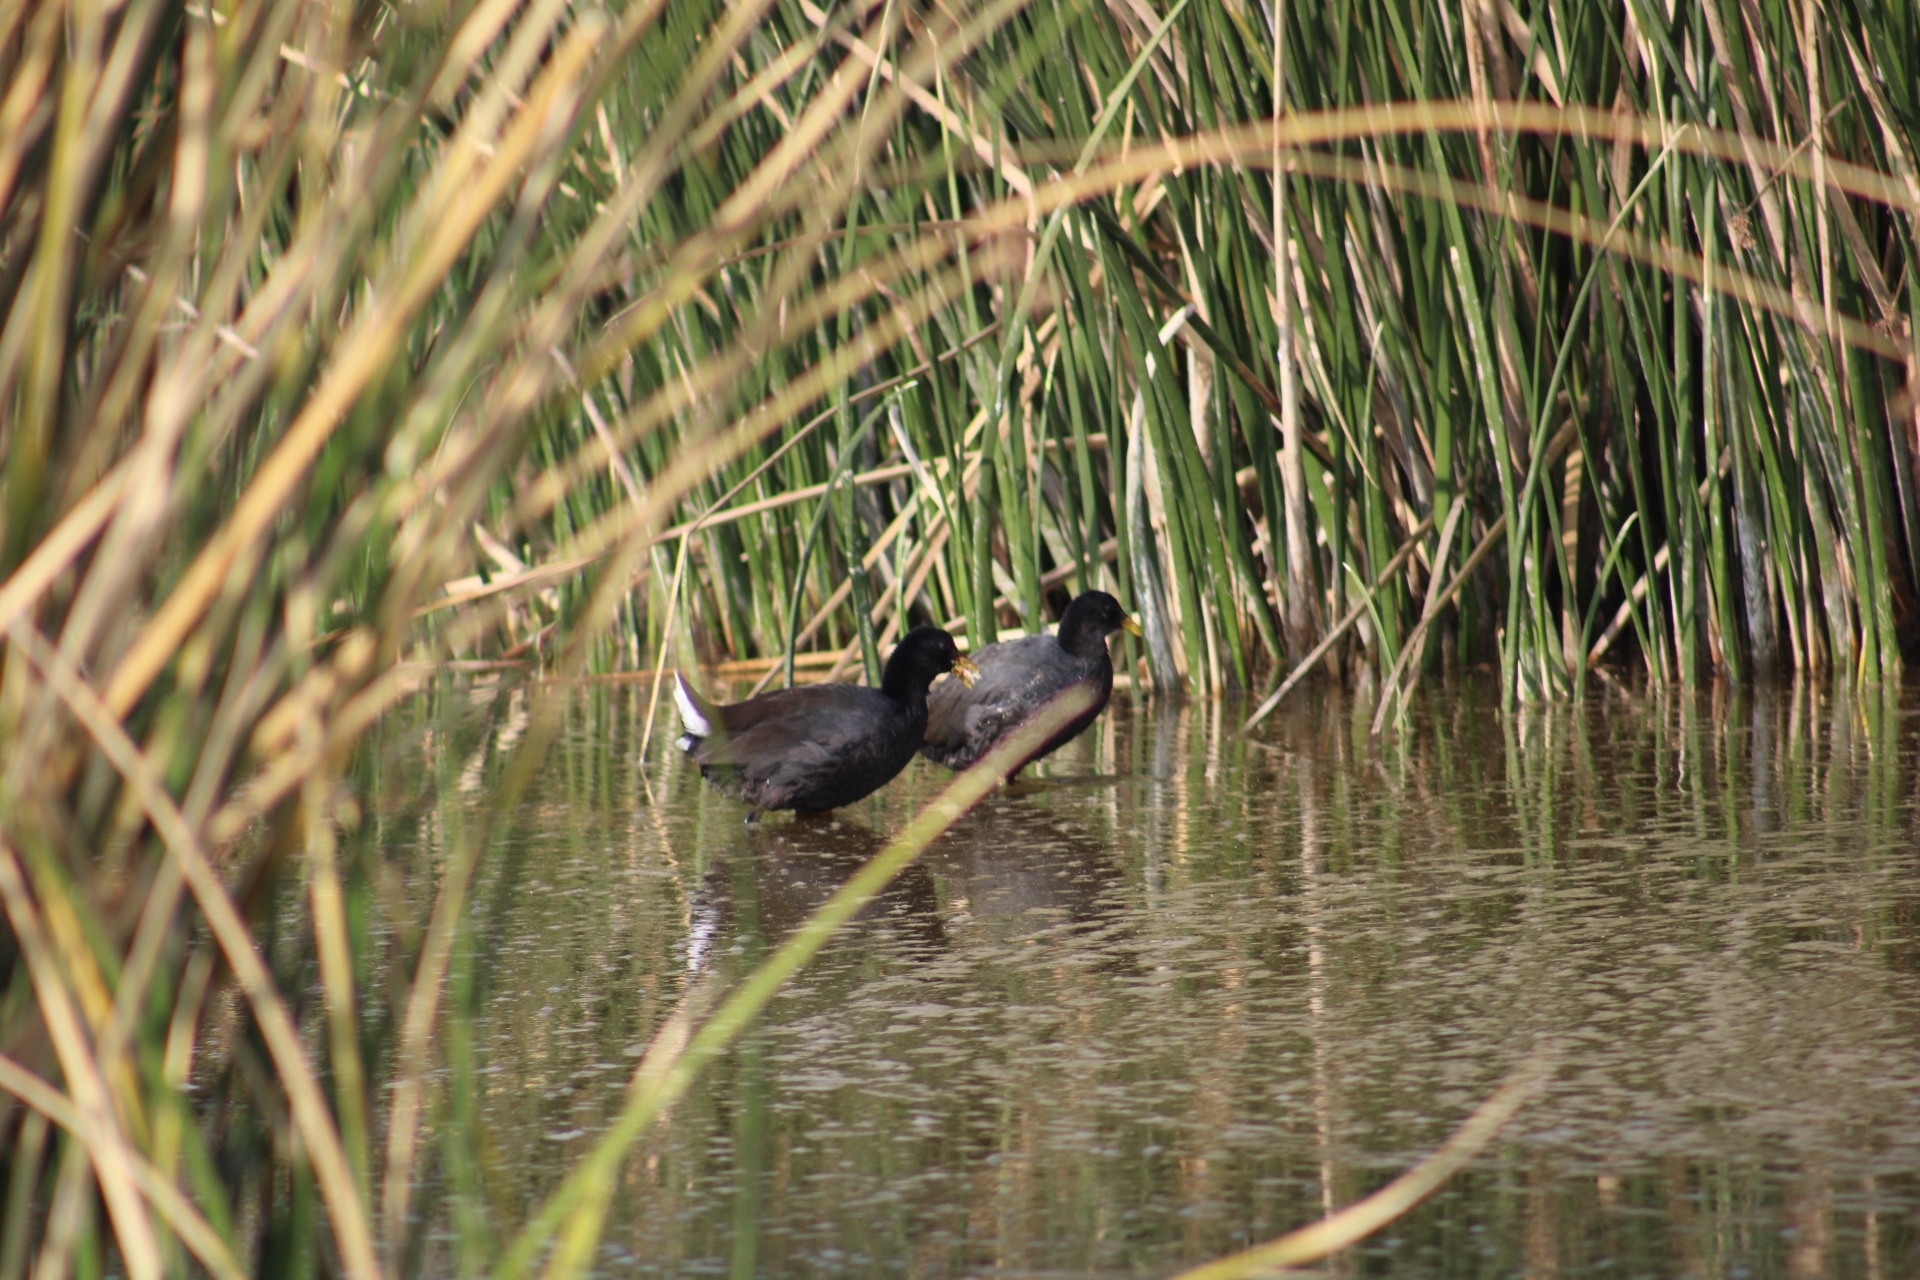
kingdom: Animalia
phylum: Chordata
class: Aves
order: Gruiformes
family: Rallidae
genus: Fulica
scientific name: Fulica rufifrons
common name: Red-fronted coot
